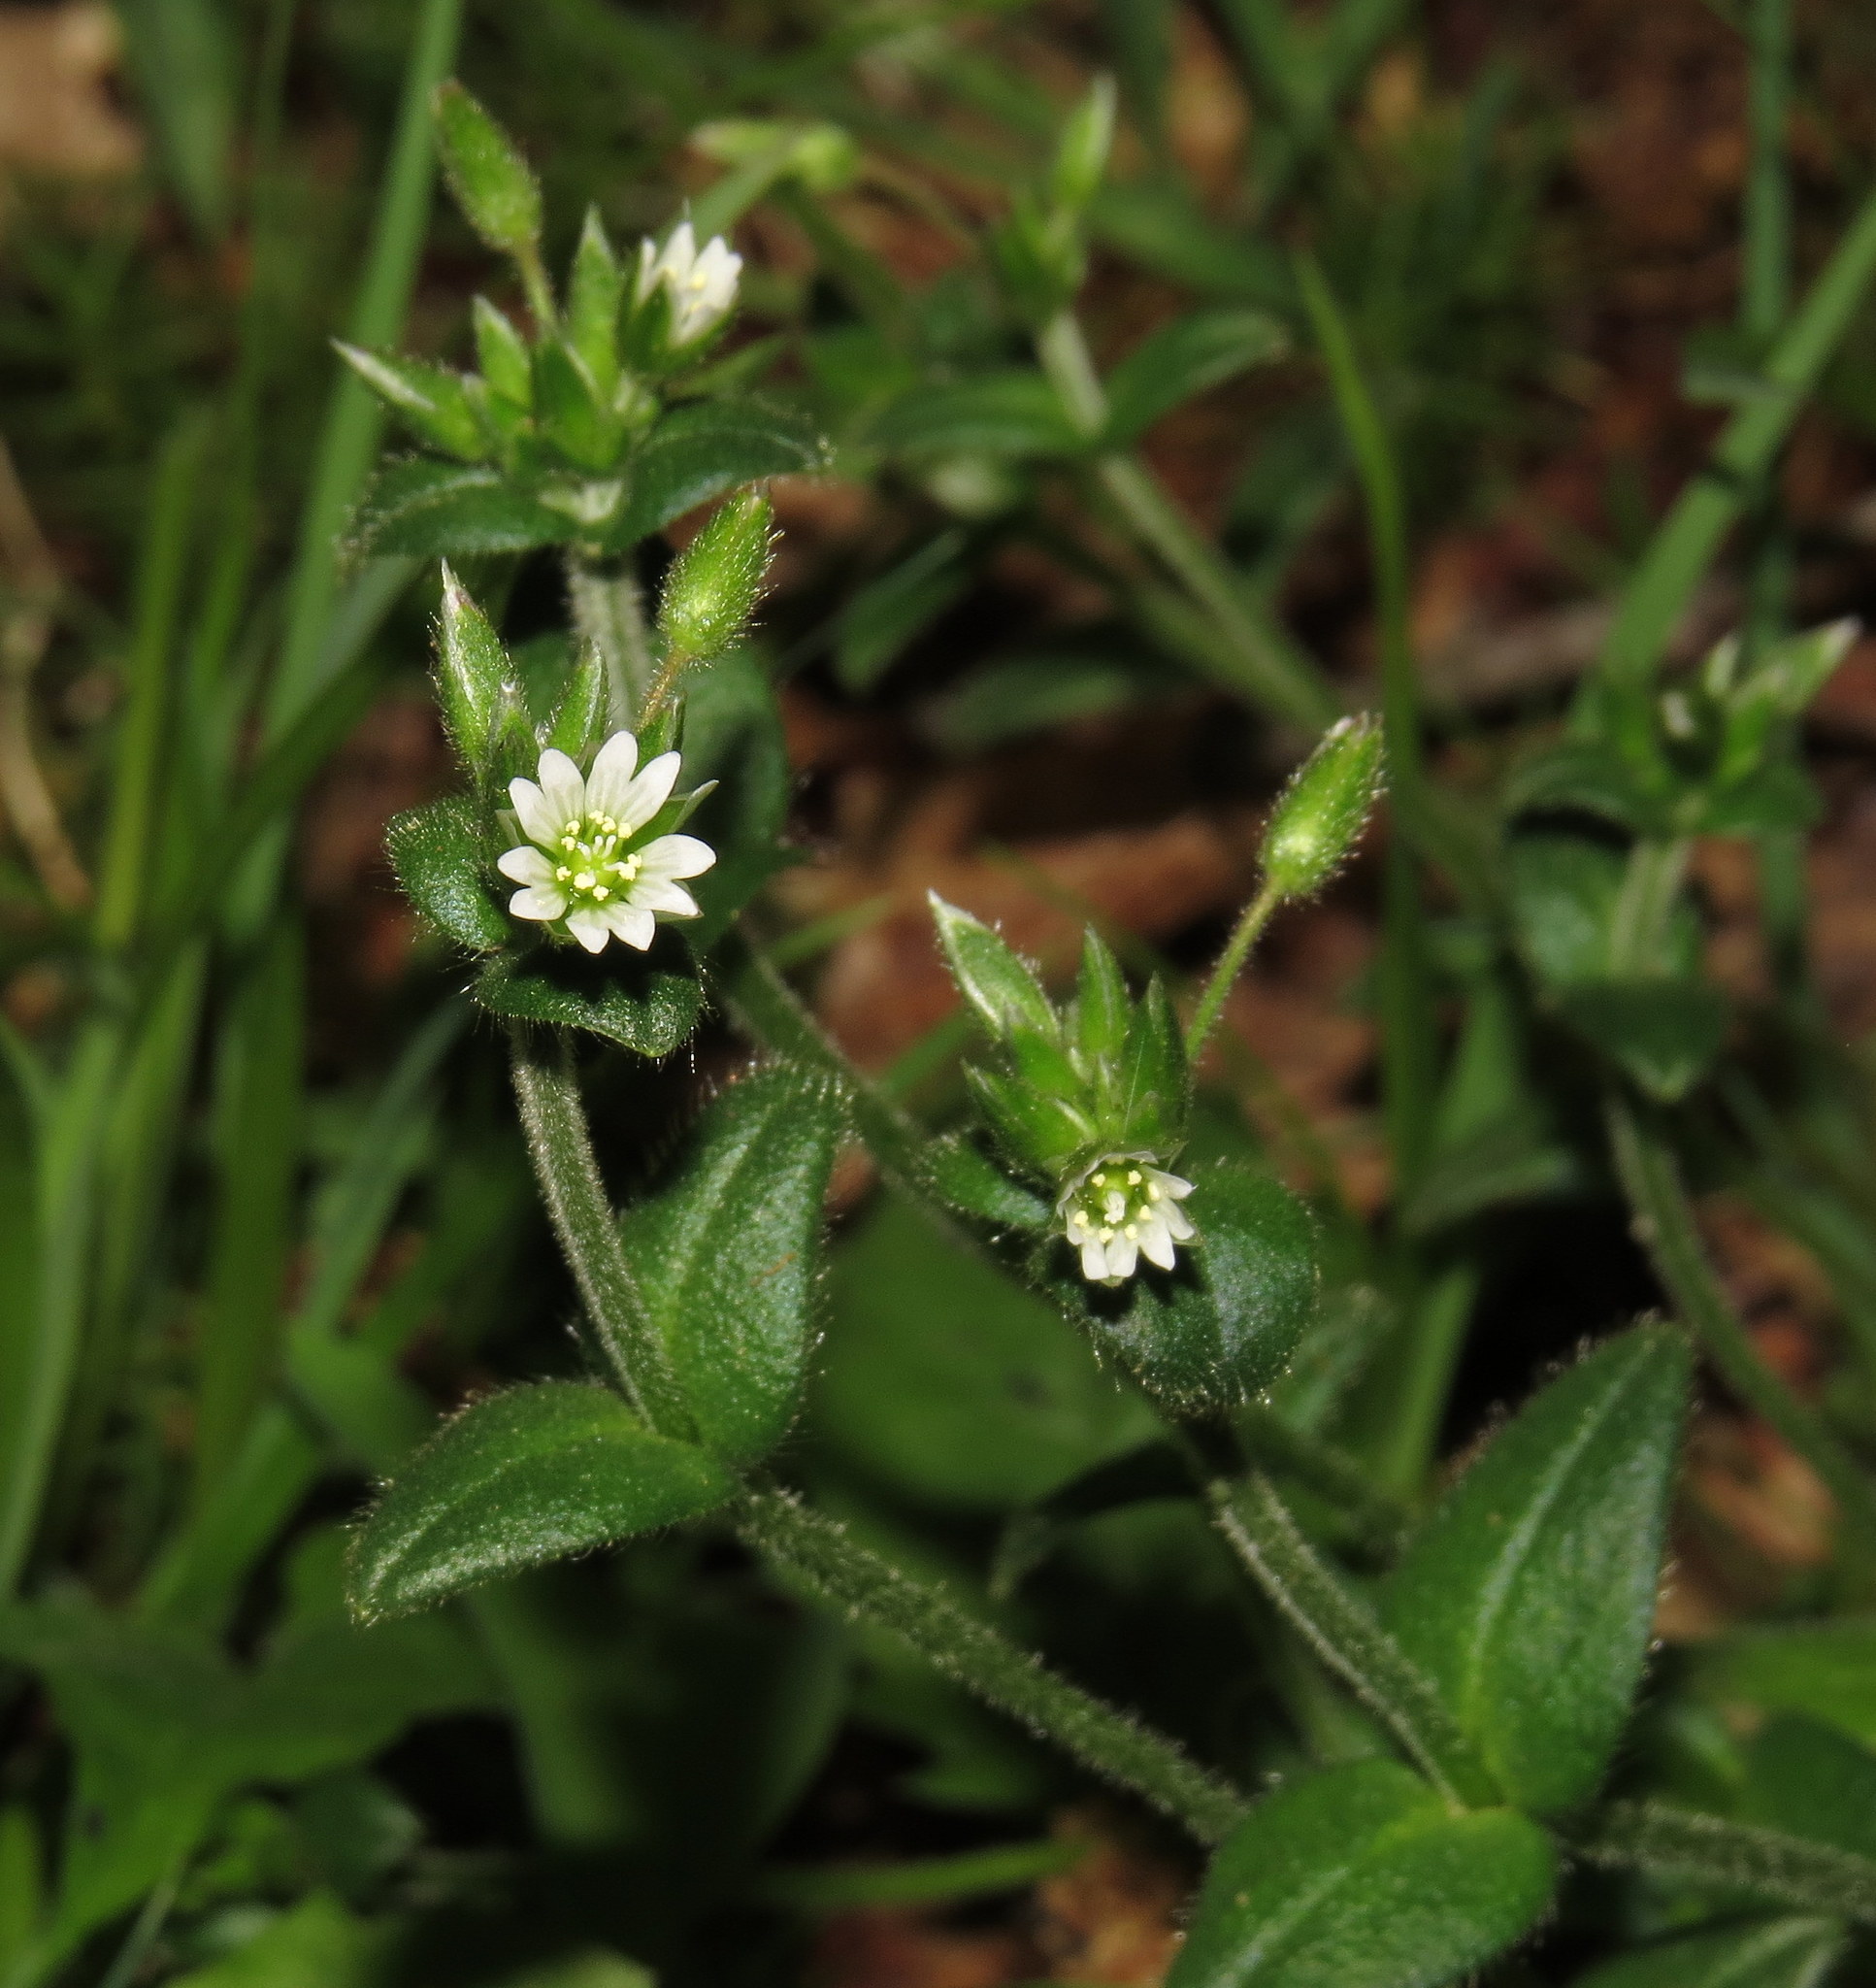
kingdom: Plantae
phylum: Tracheophyta
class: Magnoliopsida
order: Caryophyllales
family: Caryophyllaceae
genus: Cerastium
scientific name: Cerastium fontanum
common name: Common mouse-ear
